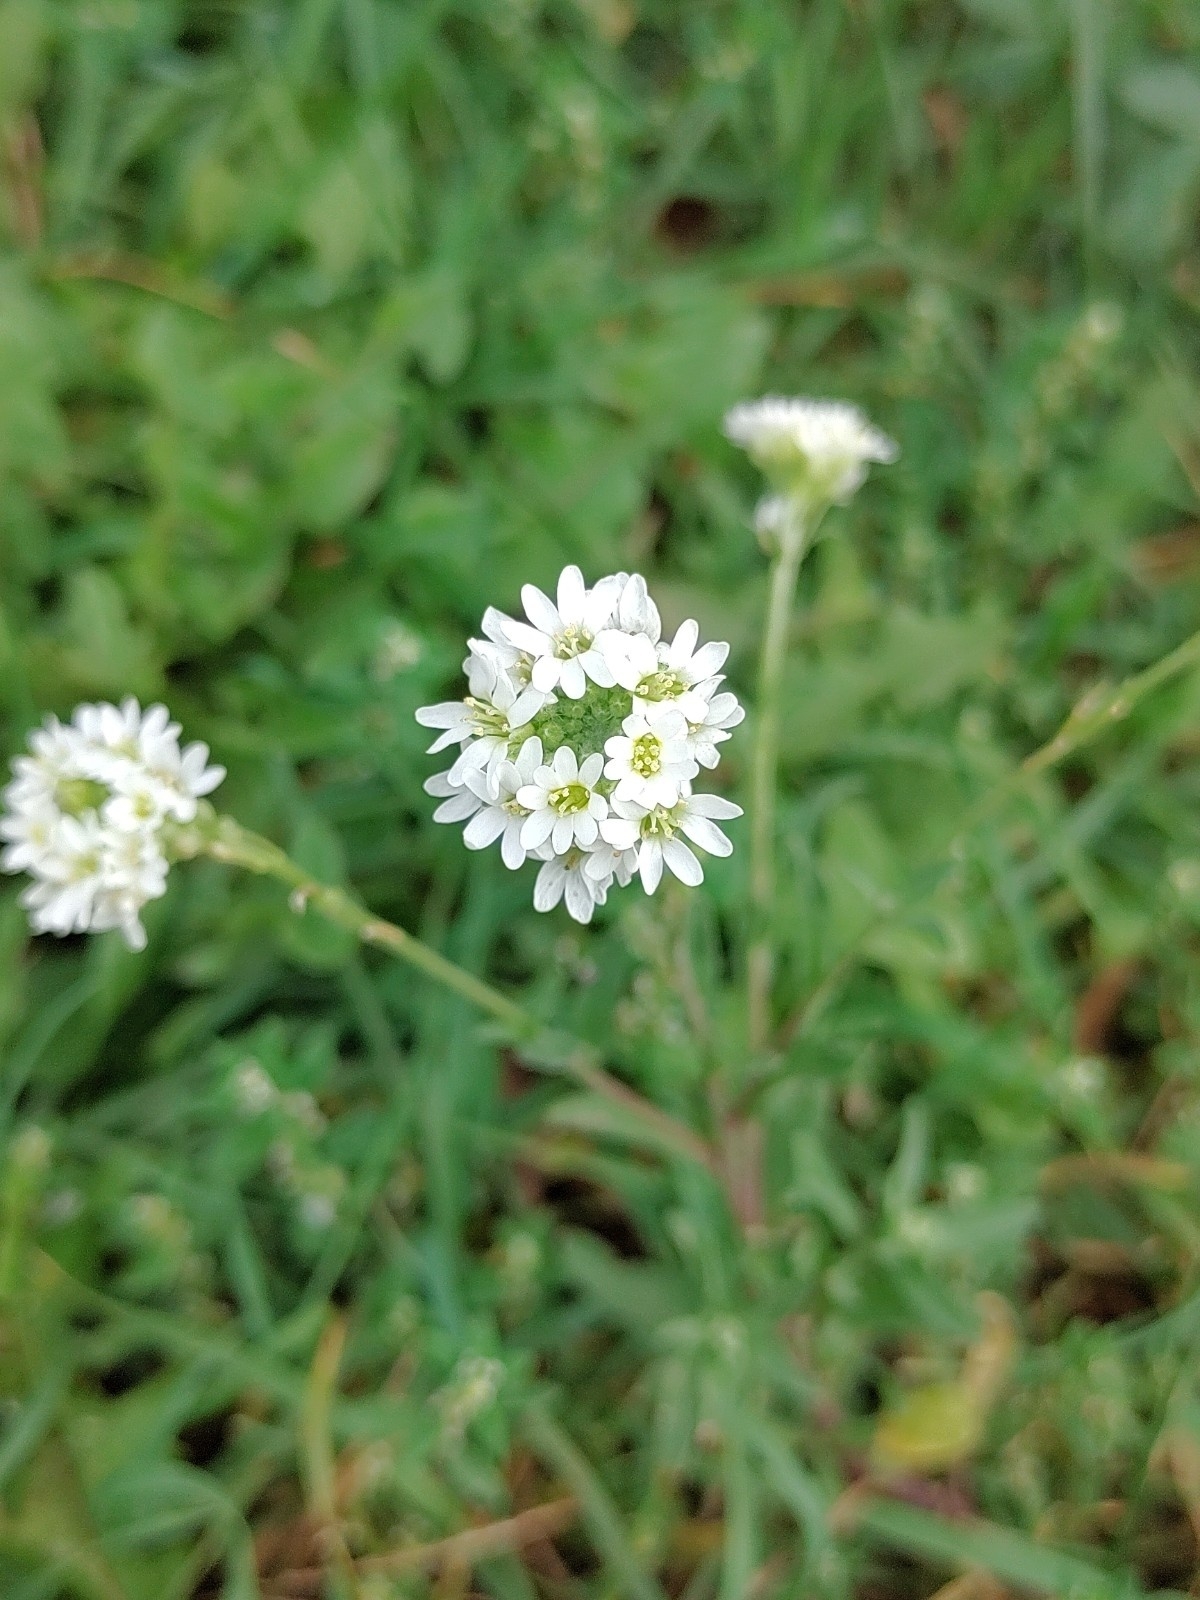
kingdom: Plantae
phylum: Tracheophyta
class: Magnoliopsida
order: Brassicales
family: Brassicaceae
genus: Berteroa
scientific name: Berteroa incana
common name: Hoary alison
